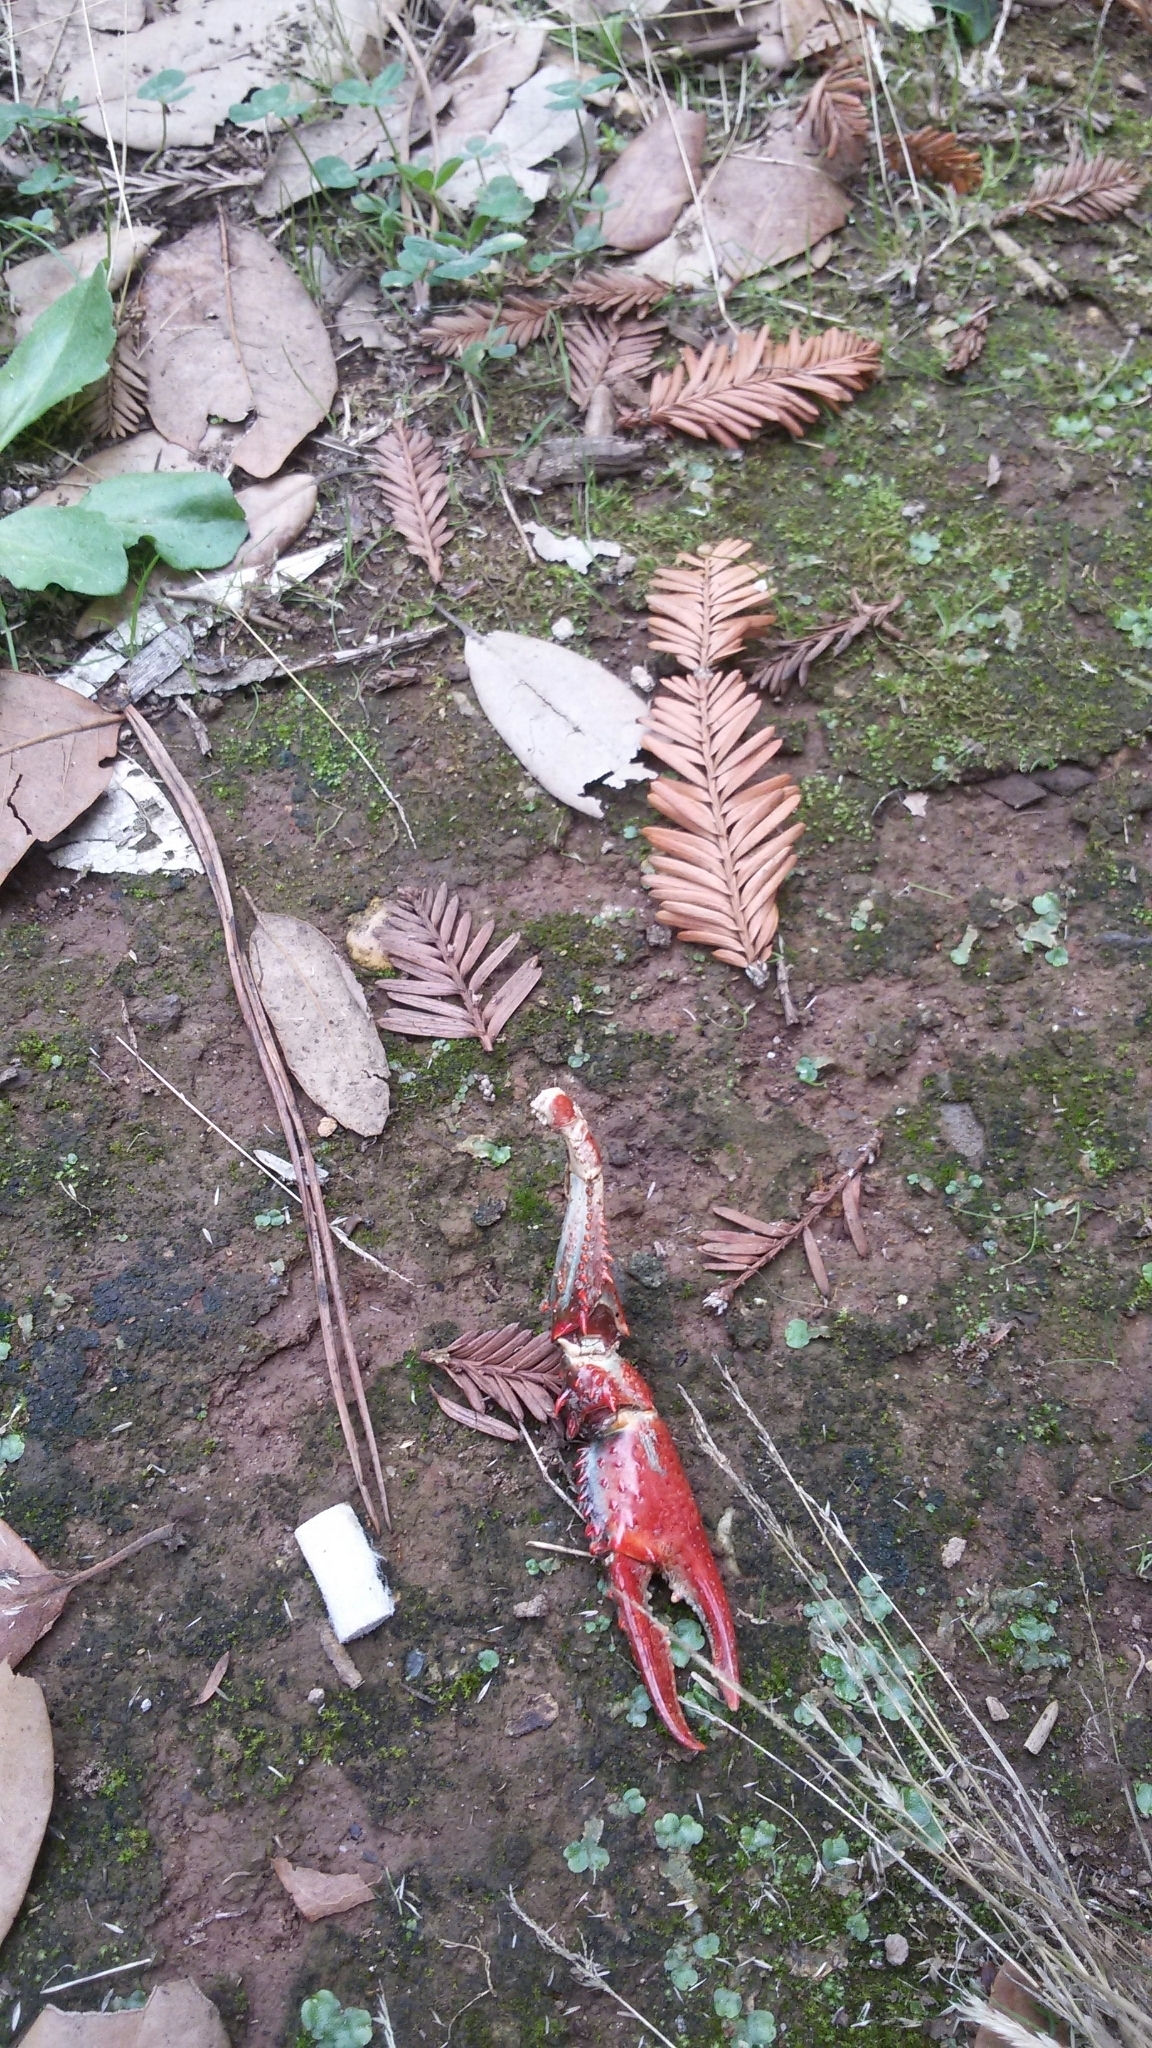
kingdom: Animalia
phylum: Arthropoda
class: Malacostraca
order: Decapoda
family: Cambaridae
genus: Procambarus
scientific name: Procambarus clarkii
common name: Red swamp crayfish
